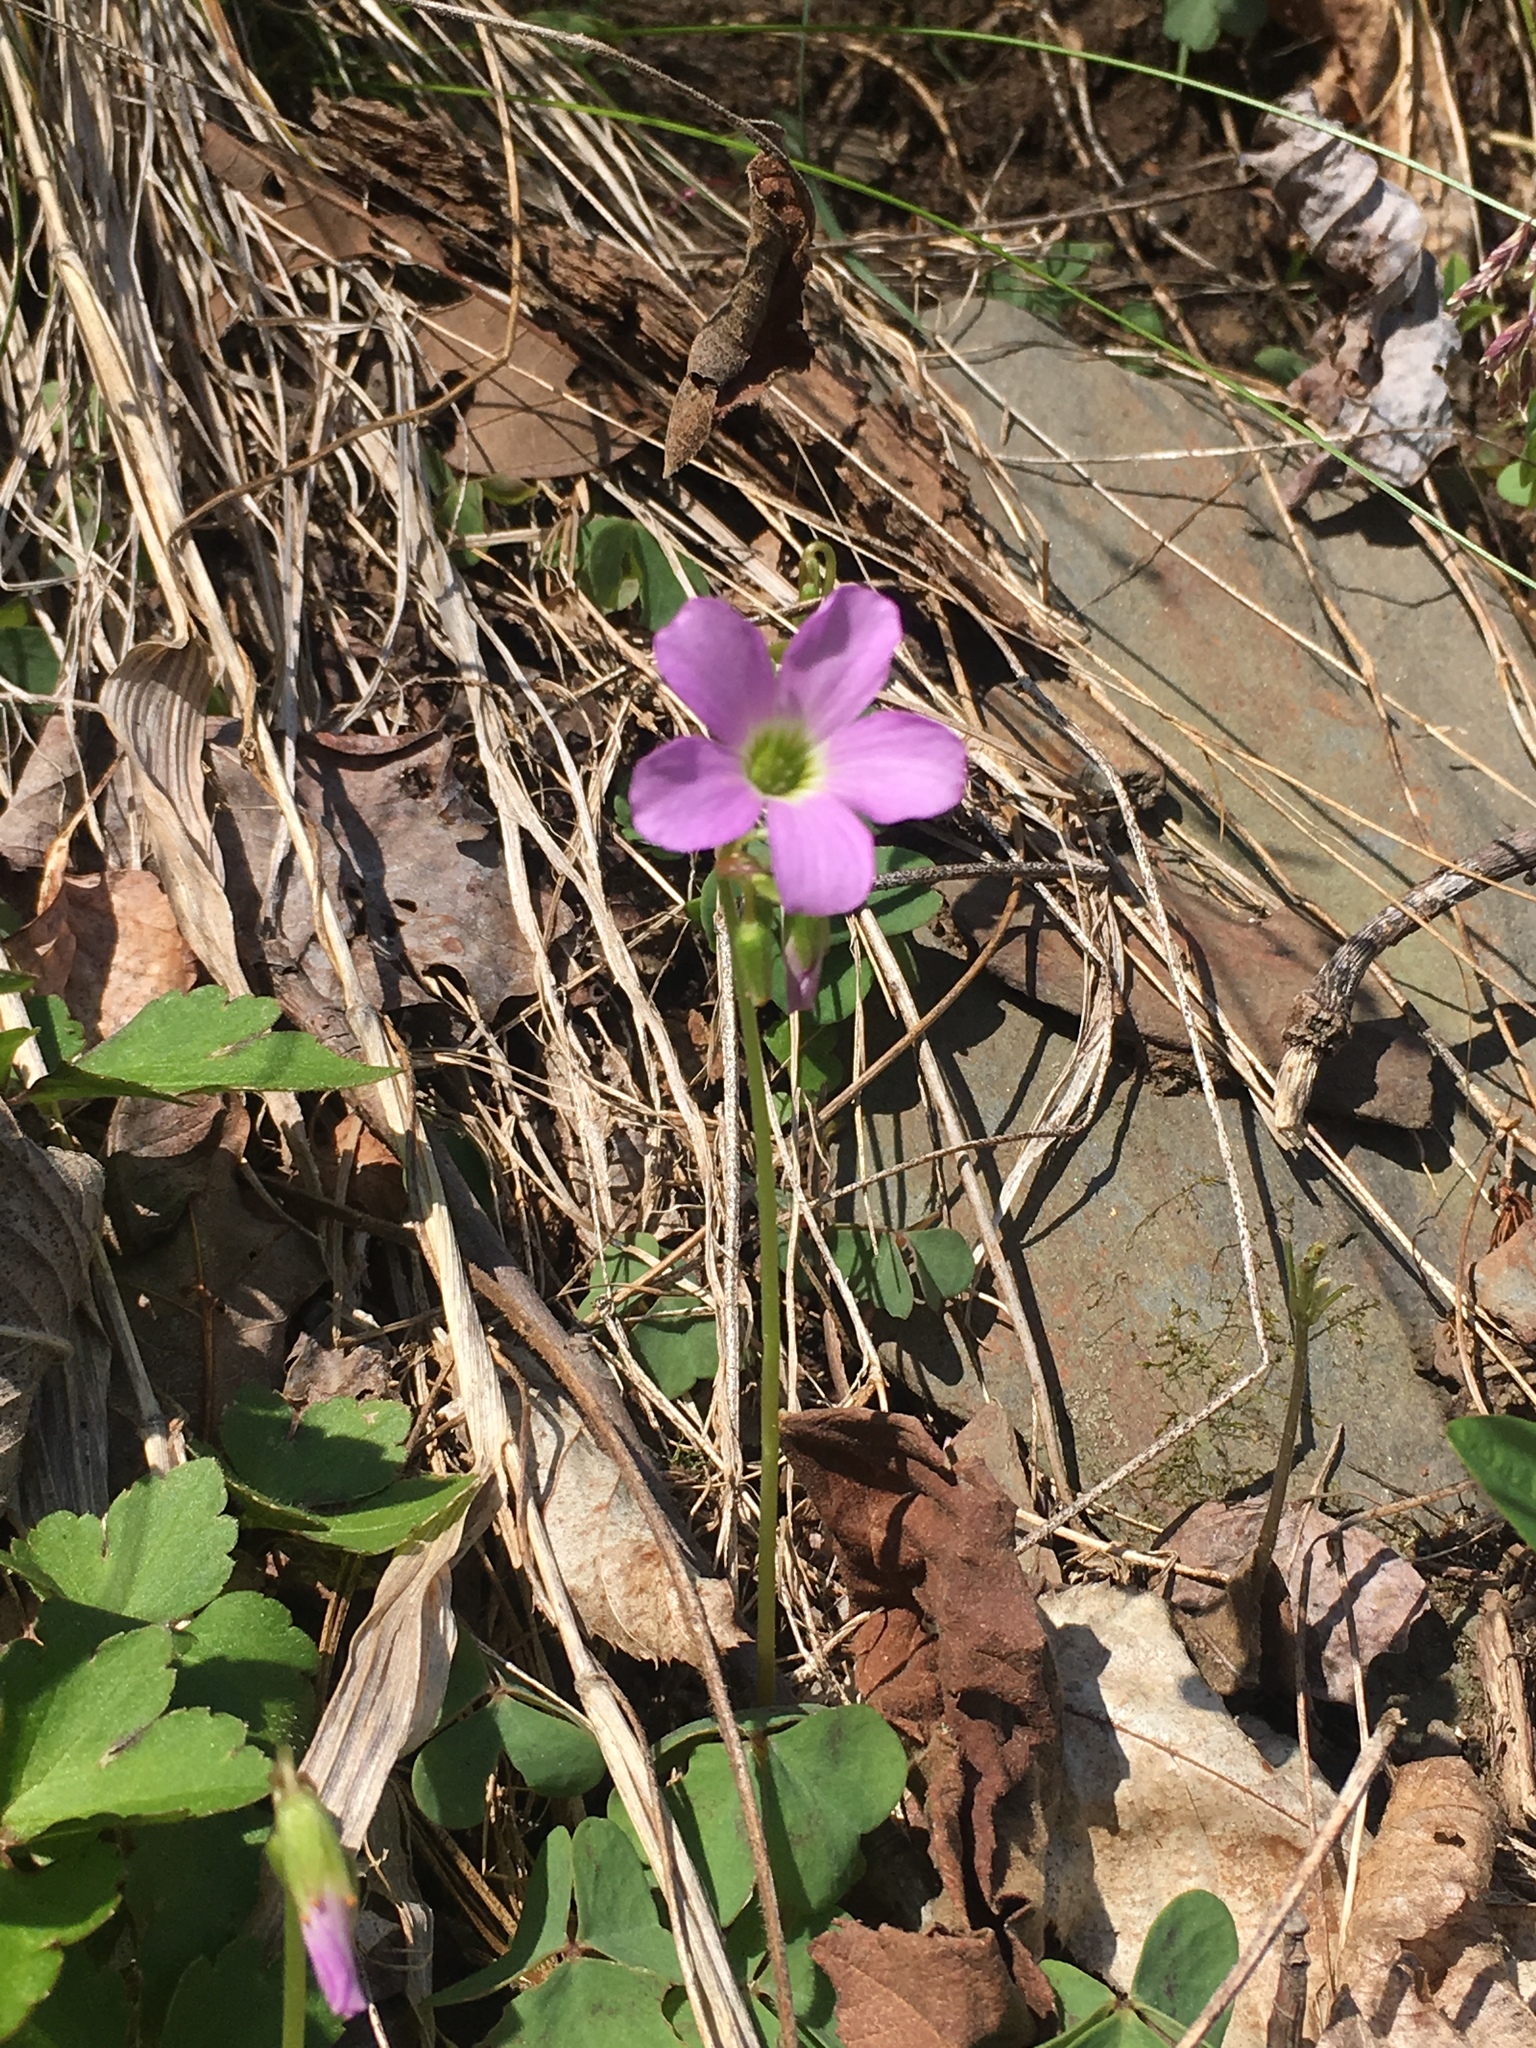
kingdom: Plantae
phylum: Tracheophyta
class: Magnoliopsida
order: Oxalidales
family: Oxalidaceae
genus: Oxalis
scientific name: Oxalis violacea
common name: Violet wood-sorrel
